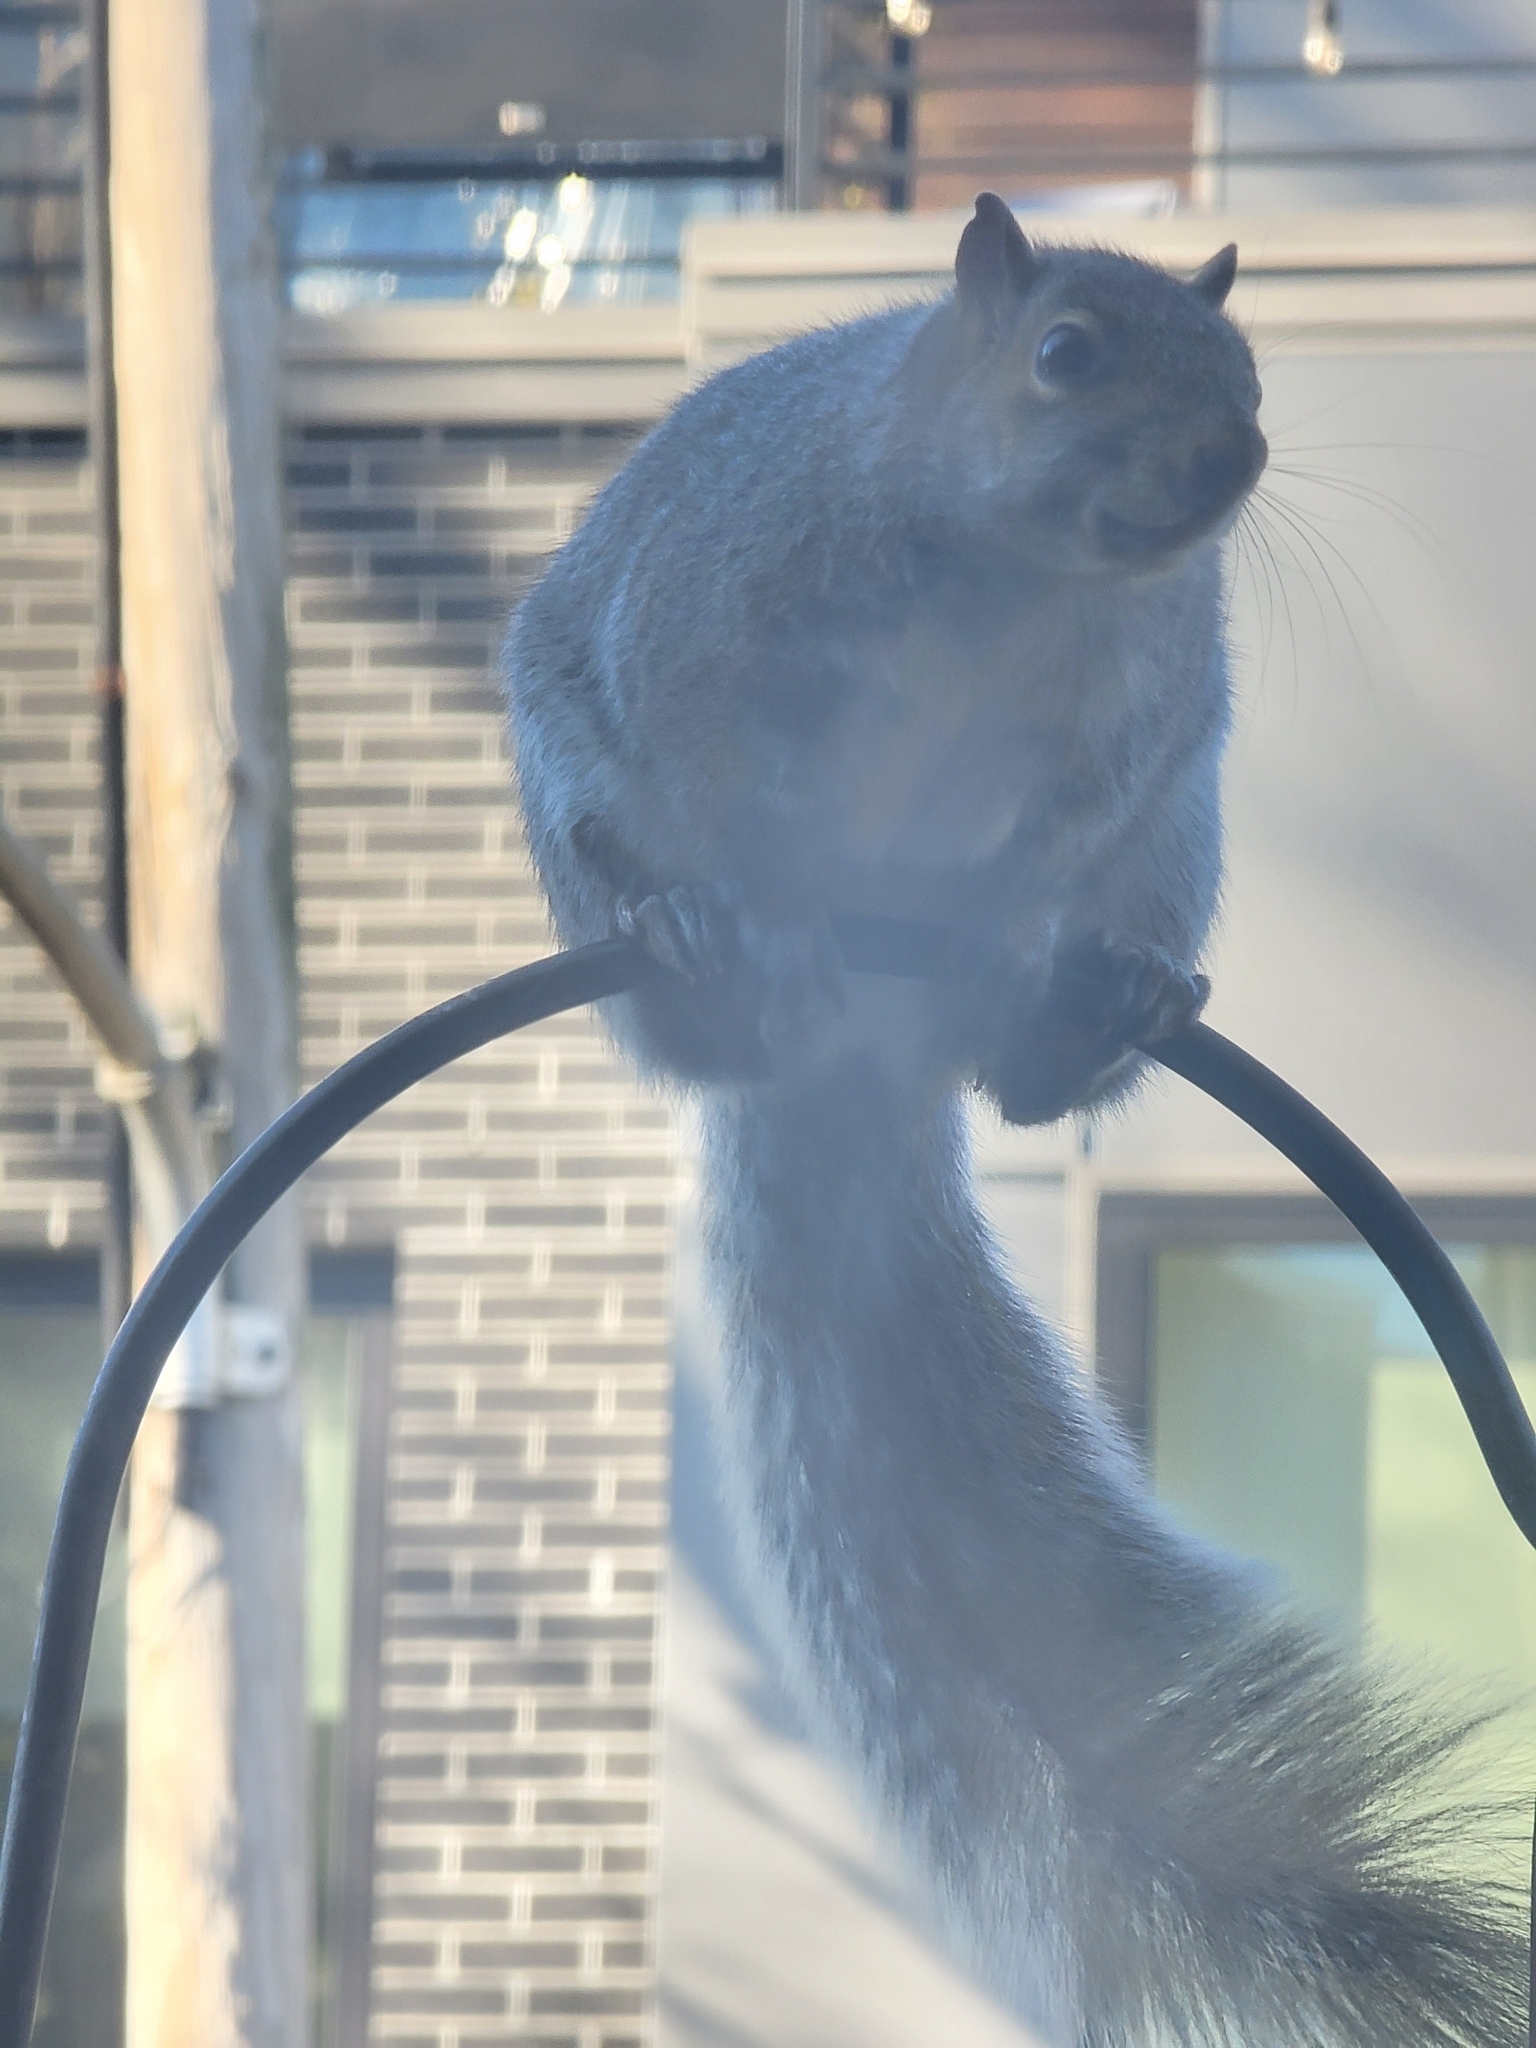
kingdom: Animalia
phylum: Chordata
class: Mammalia
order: Rodentia
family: Sciuridae
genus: Sciurus
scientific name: Sciurus carolinensis
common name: Eastern gray squirrel
